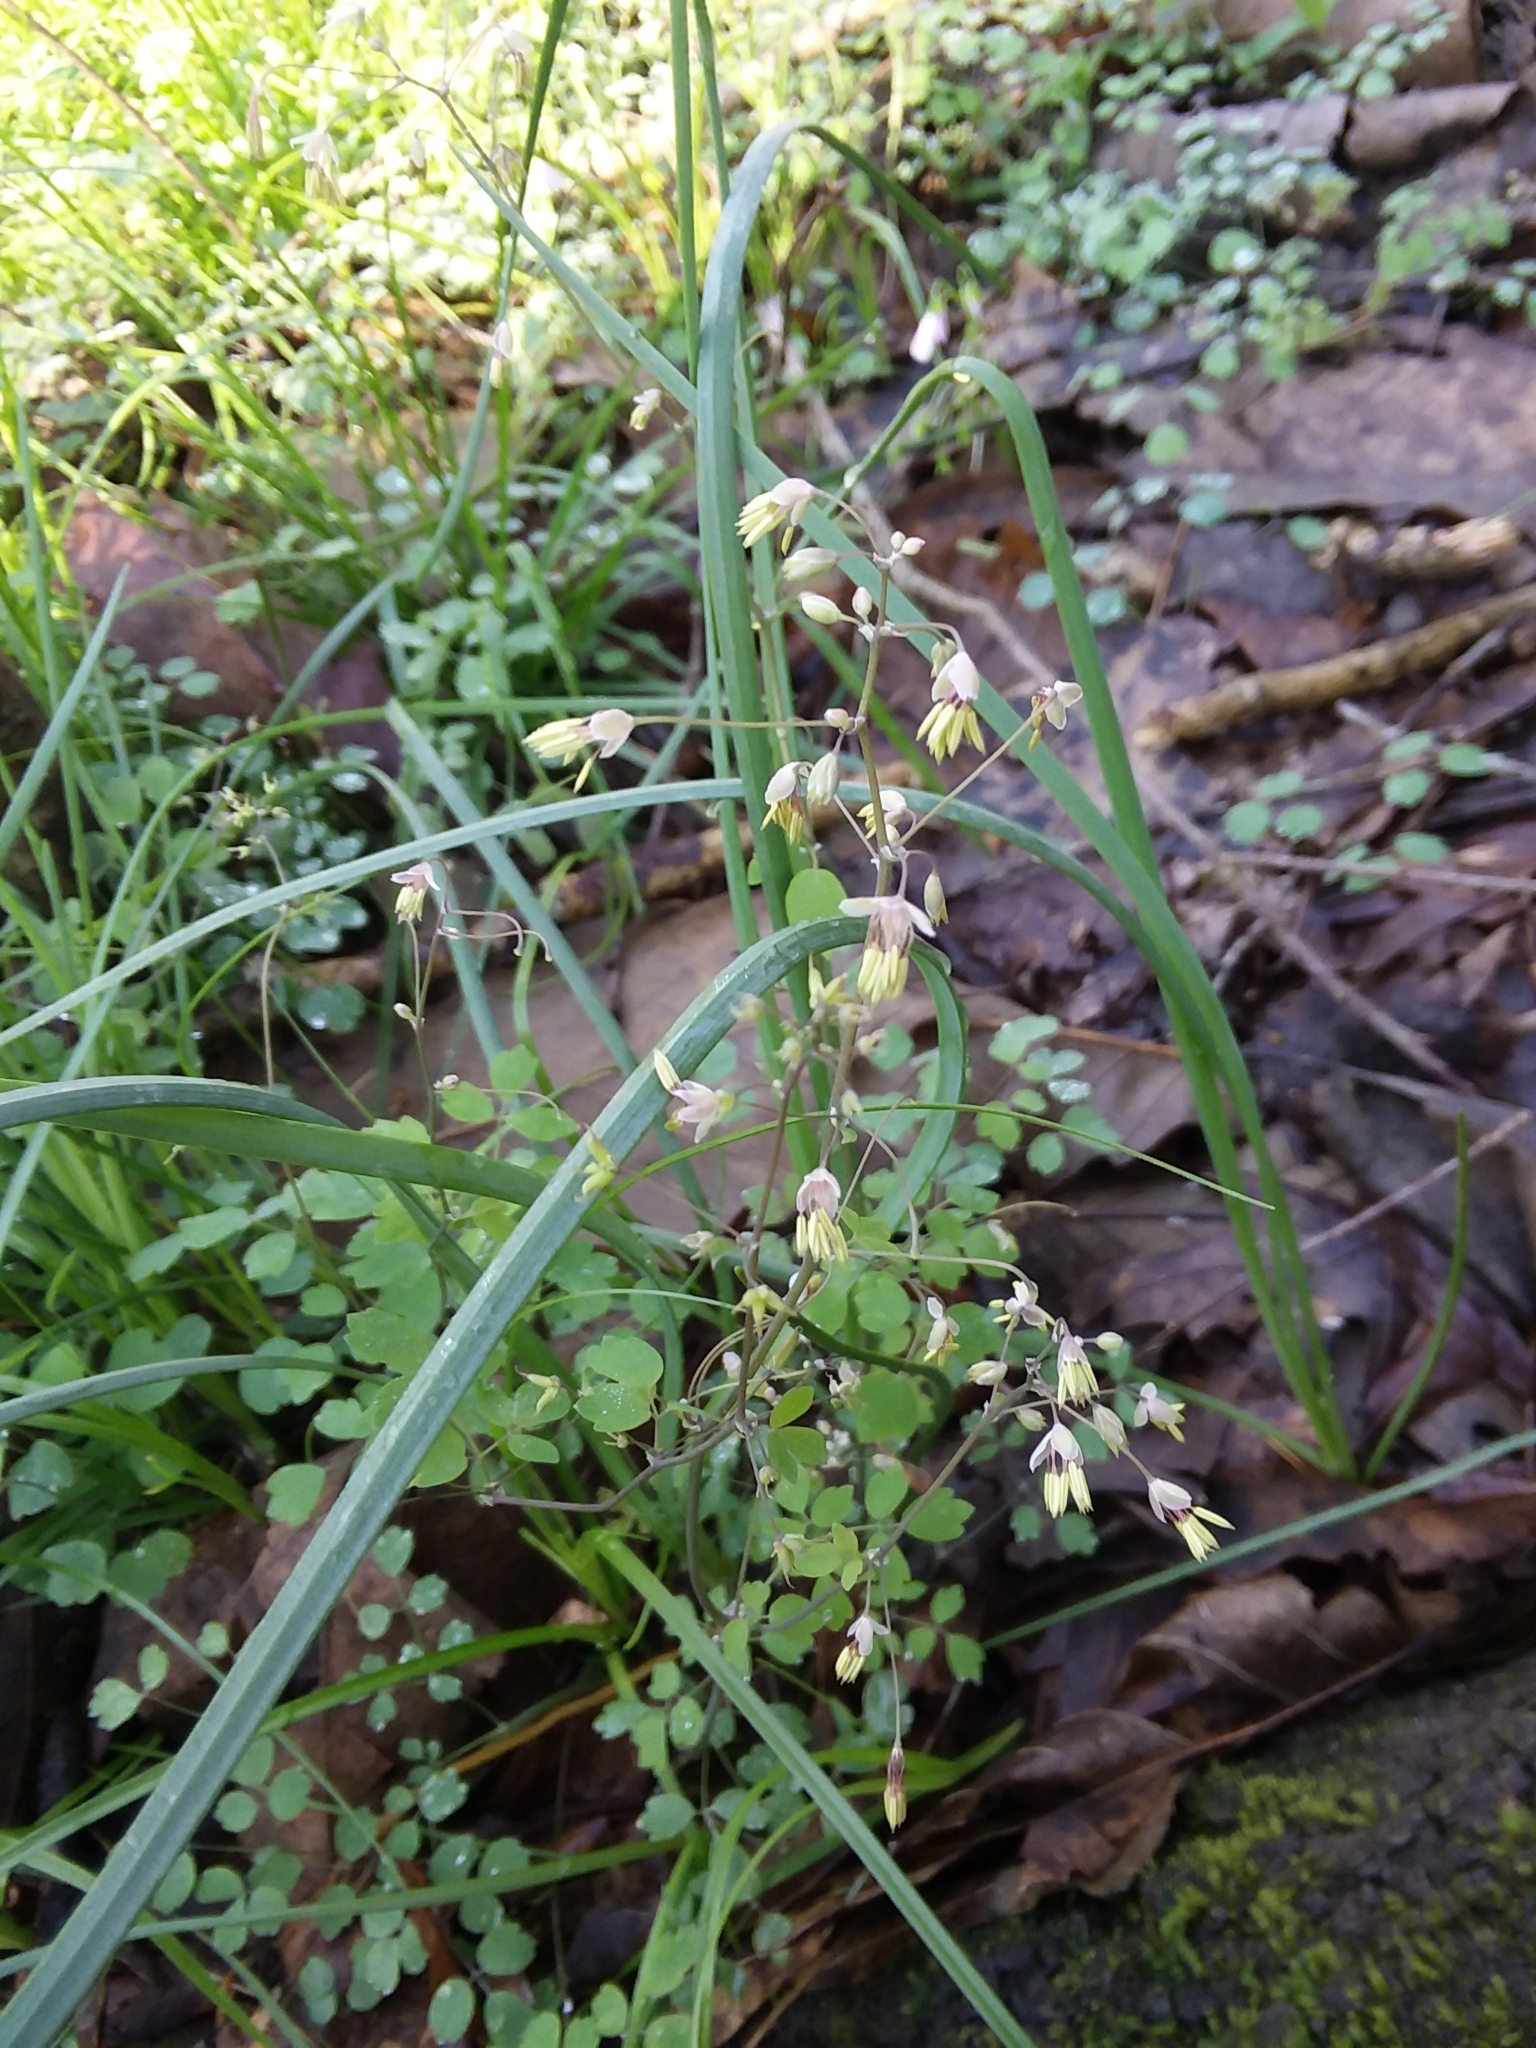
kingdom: Plantae
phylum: Tracheophyta
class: Magnoliopsida
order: Ranunculales
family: Ranunculaceae
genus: Thalictrum
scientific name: Thalictrum debile
